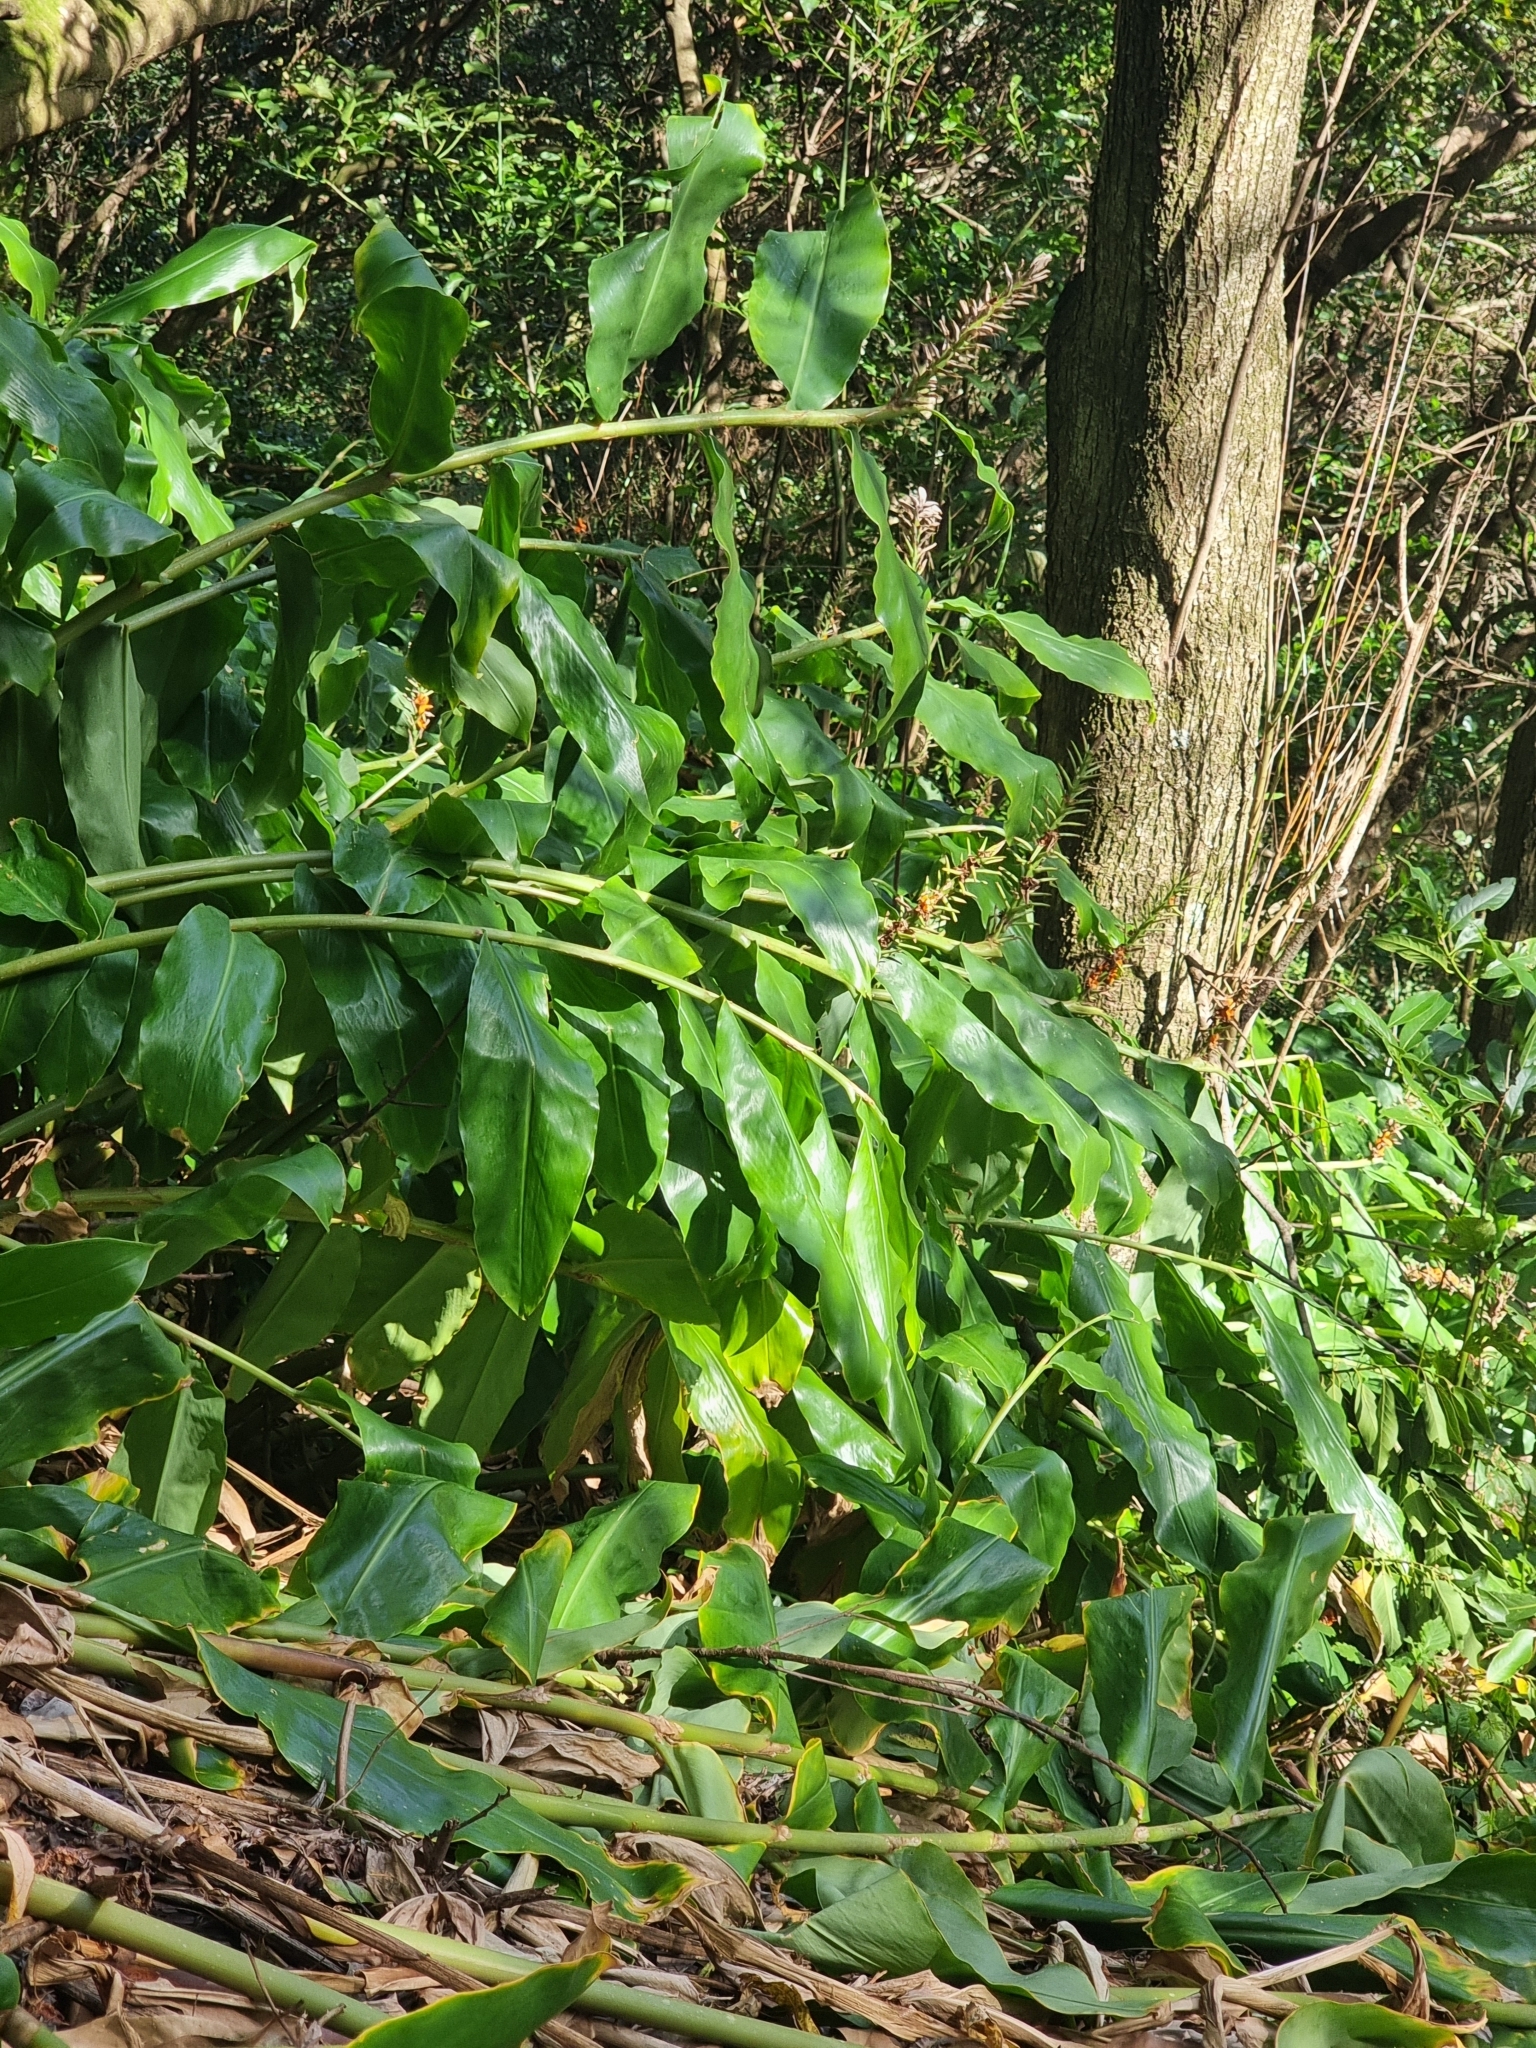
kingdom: Plantae
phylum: Tracheophyta
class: Liliopsida
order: Zingiberales
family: Zingiberaceae
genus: Hedychium
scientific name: Hedychium gardnerianum
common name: Himalayan ginger
